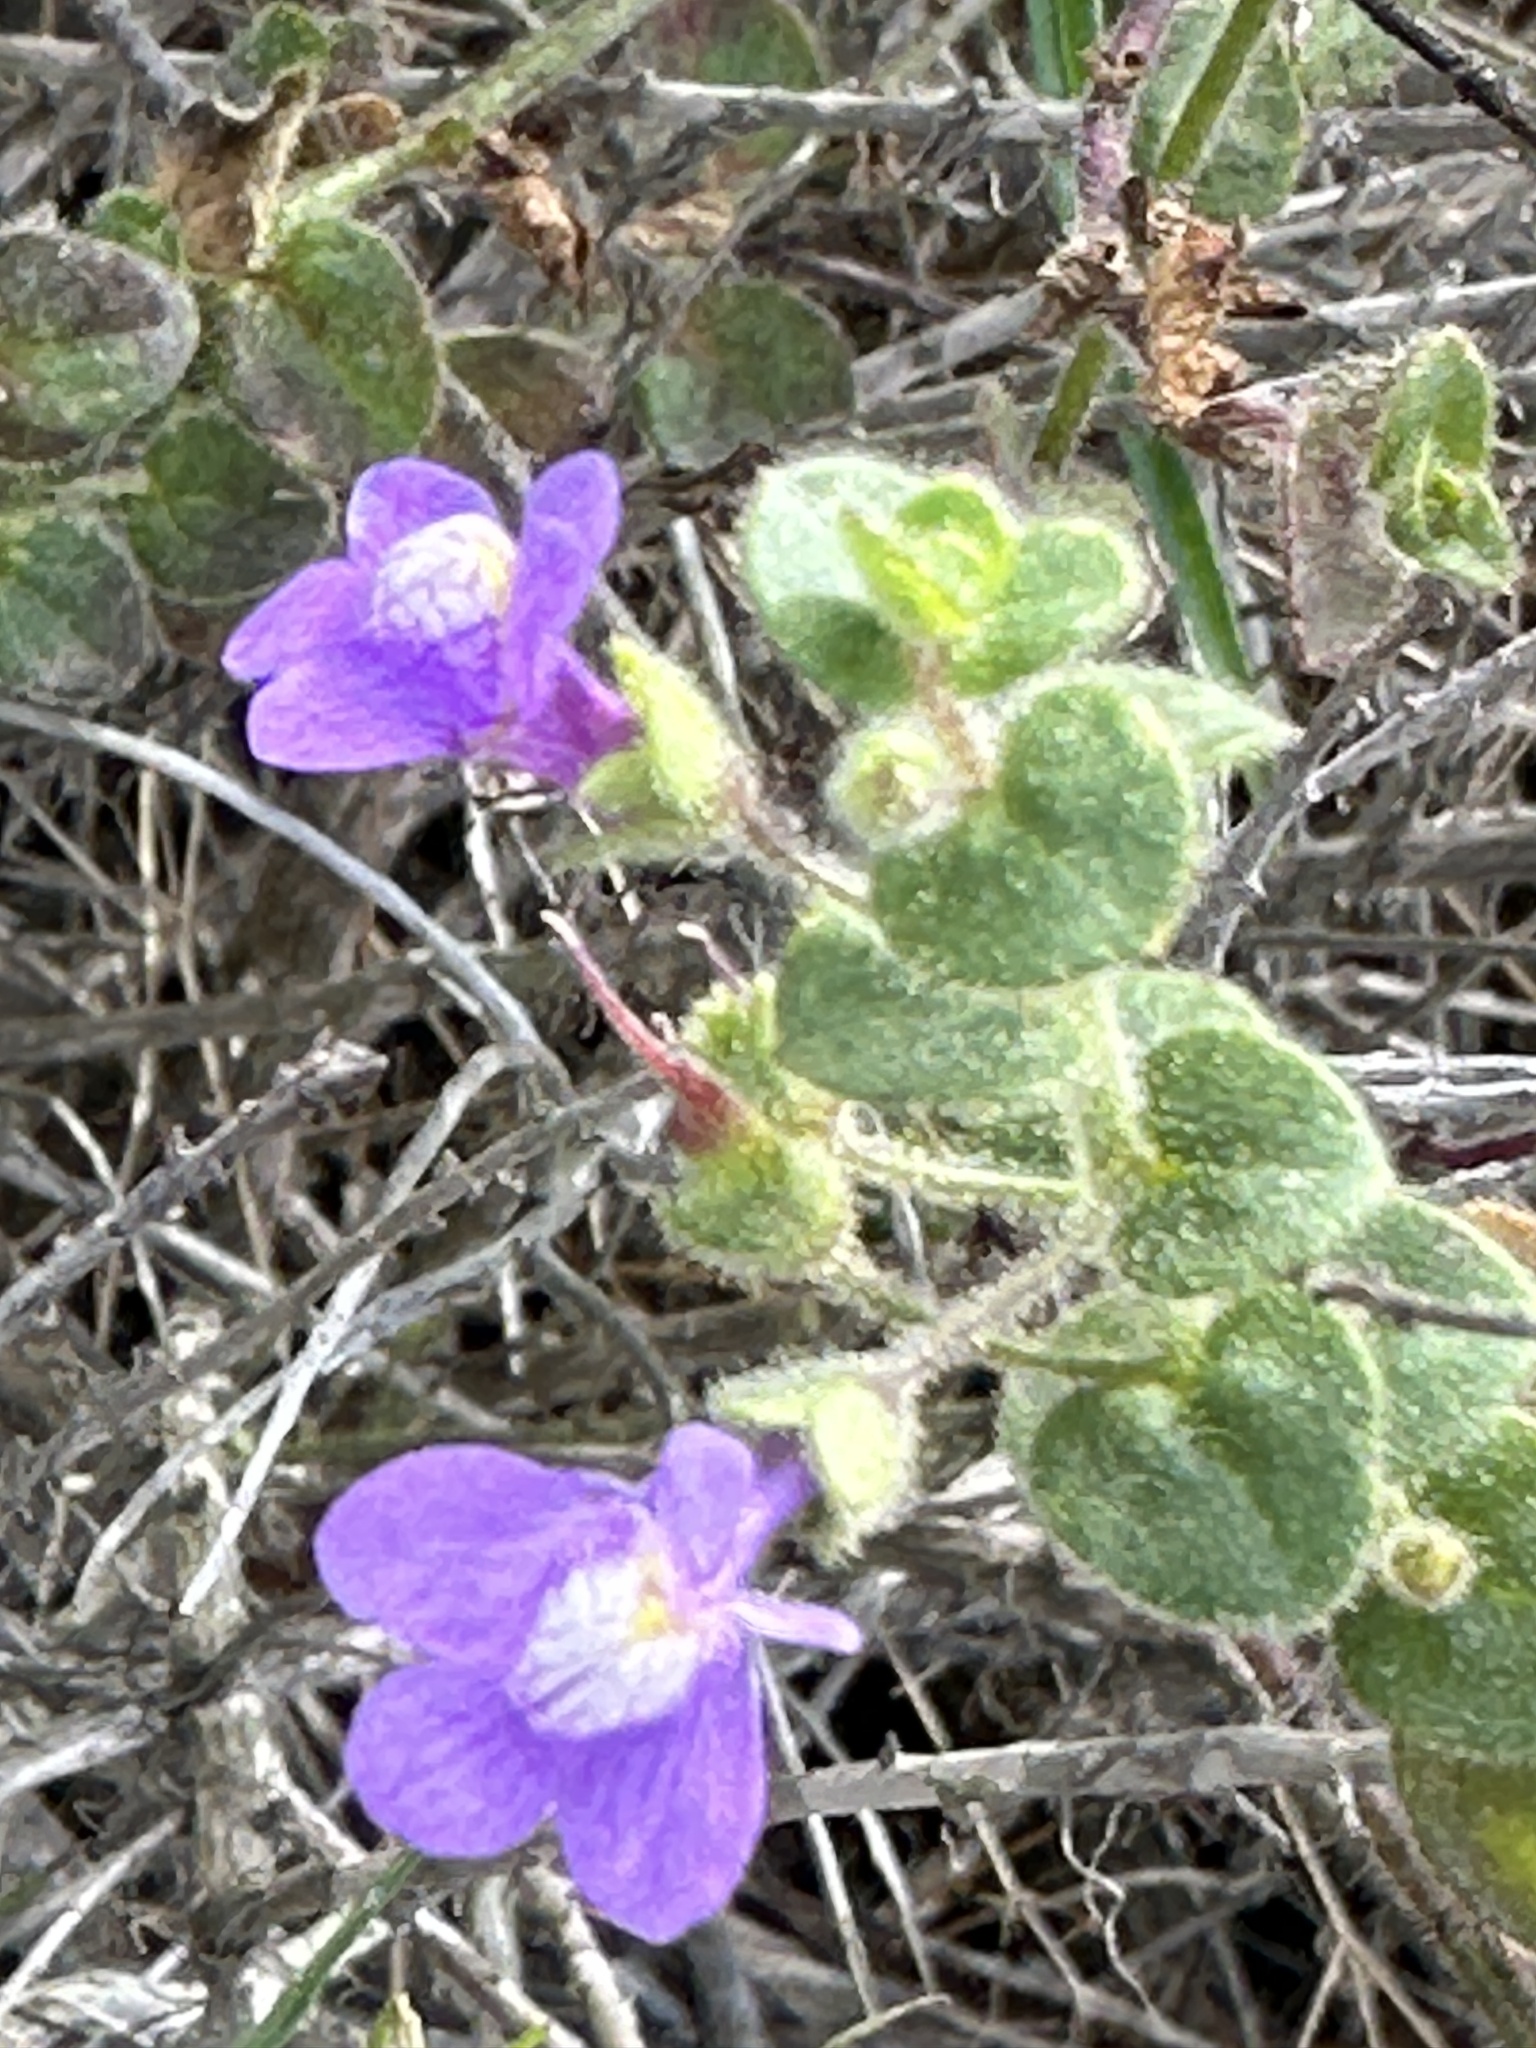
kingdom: Plantae
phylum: Tracheophyta
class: Magnoliopsida
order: Lamiales
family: Plantaginaceae
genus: Sairocarpus
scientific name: Sairocarpus nuttallianus
